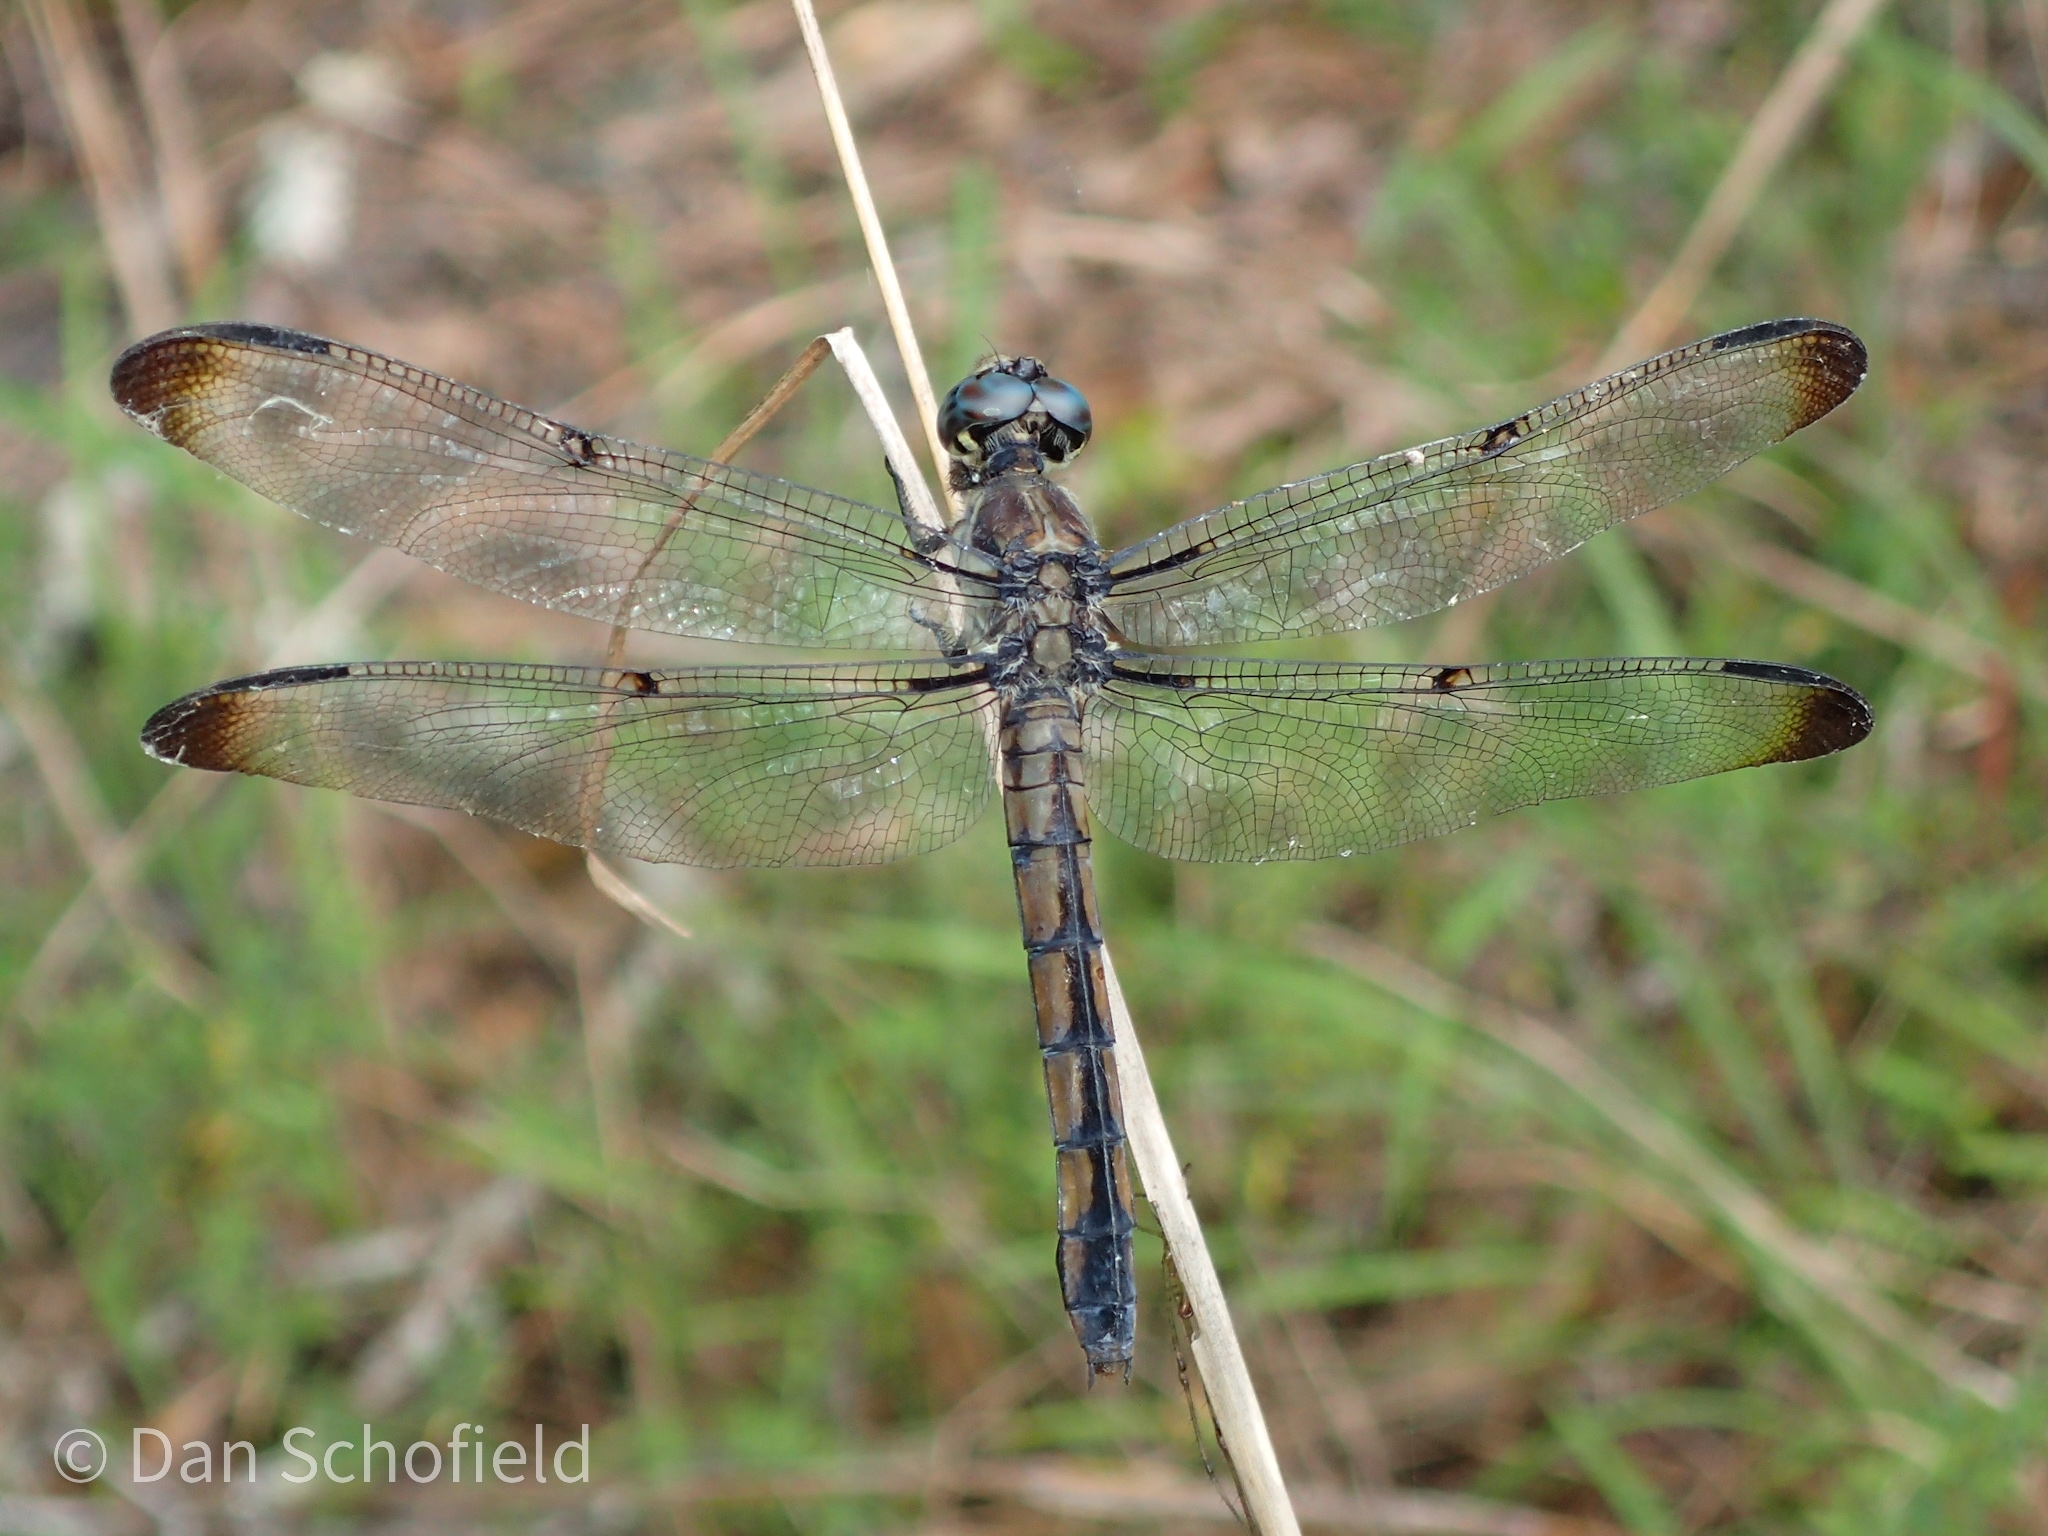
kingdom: Animalia
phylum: Arthropoda
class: Insecta
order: Odonata
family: Libellulidae
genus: Libellula
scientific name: Libellula vibrans
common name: Great blue skimmer
